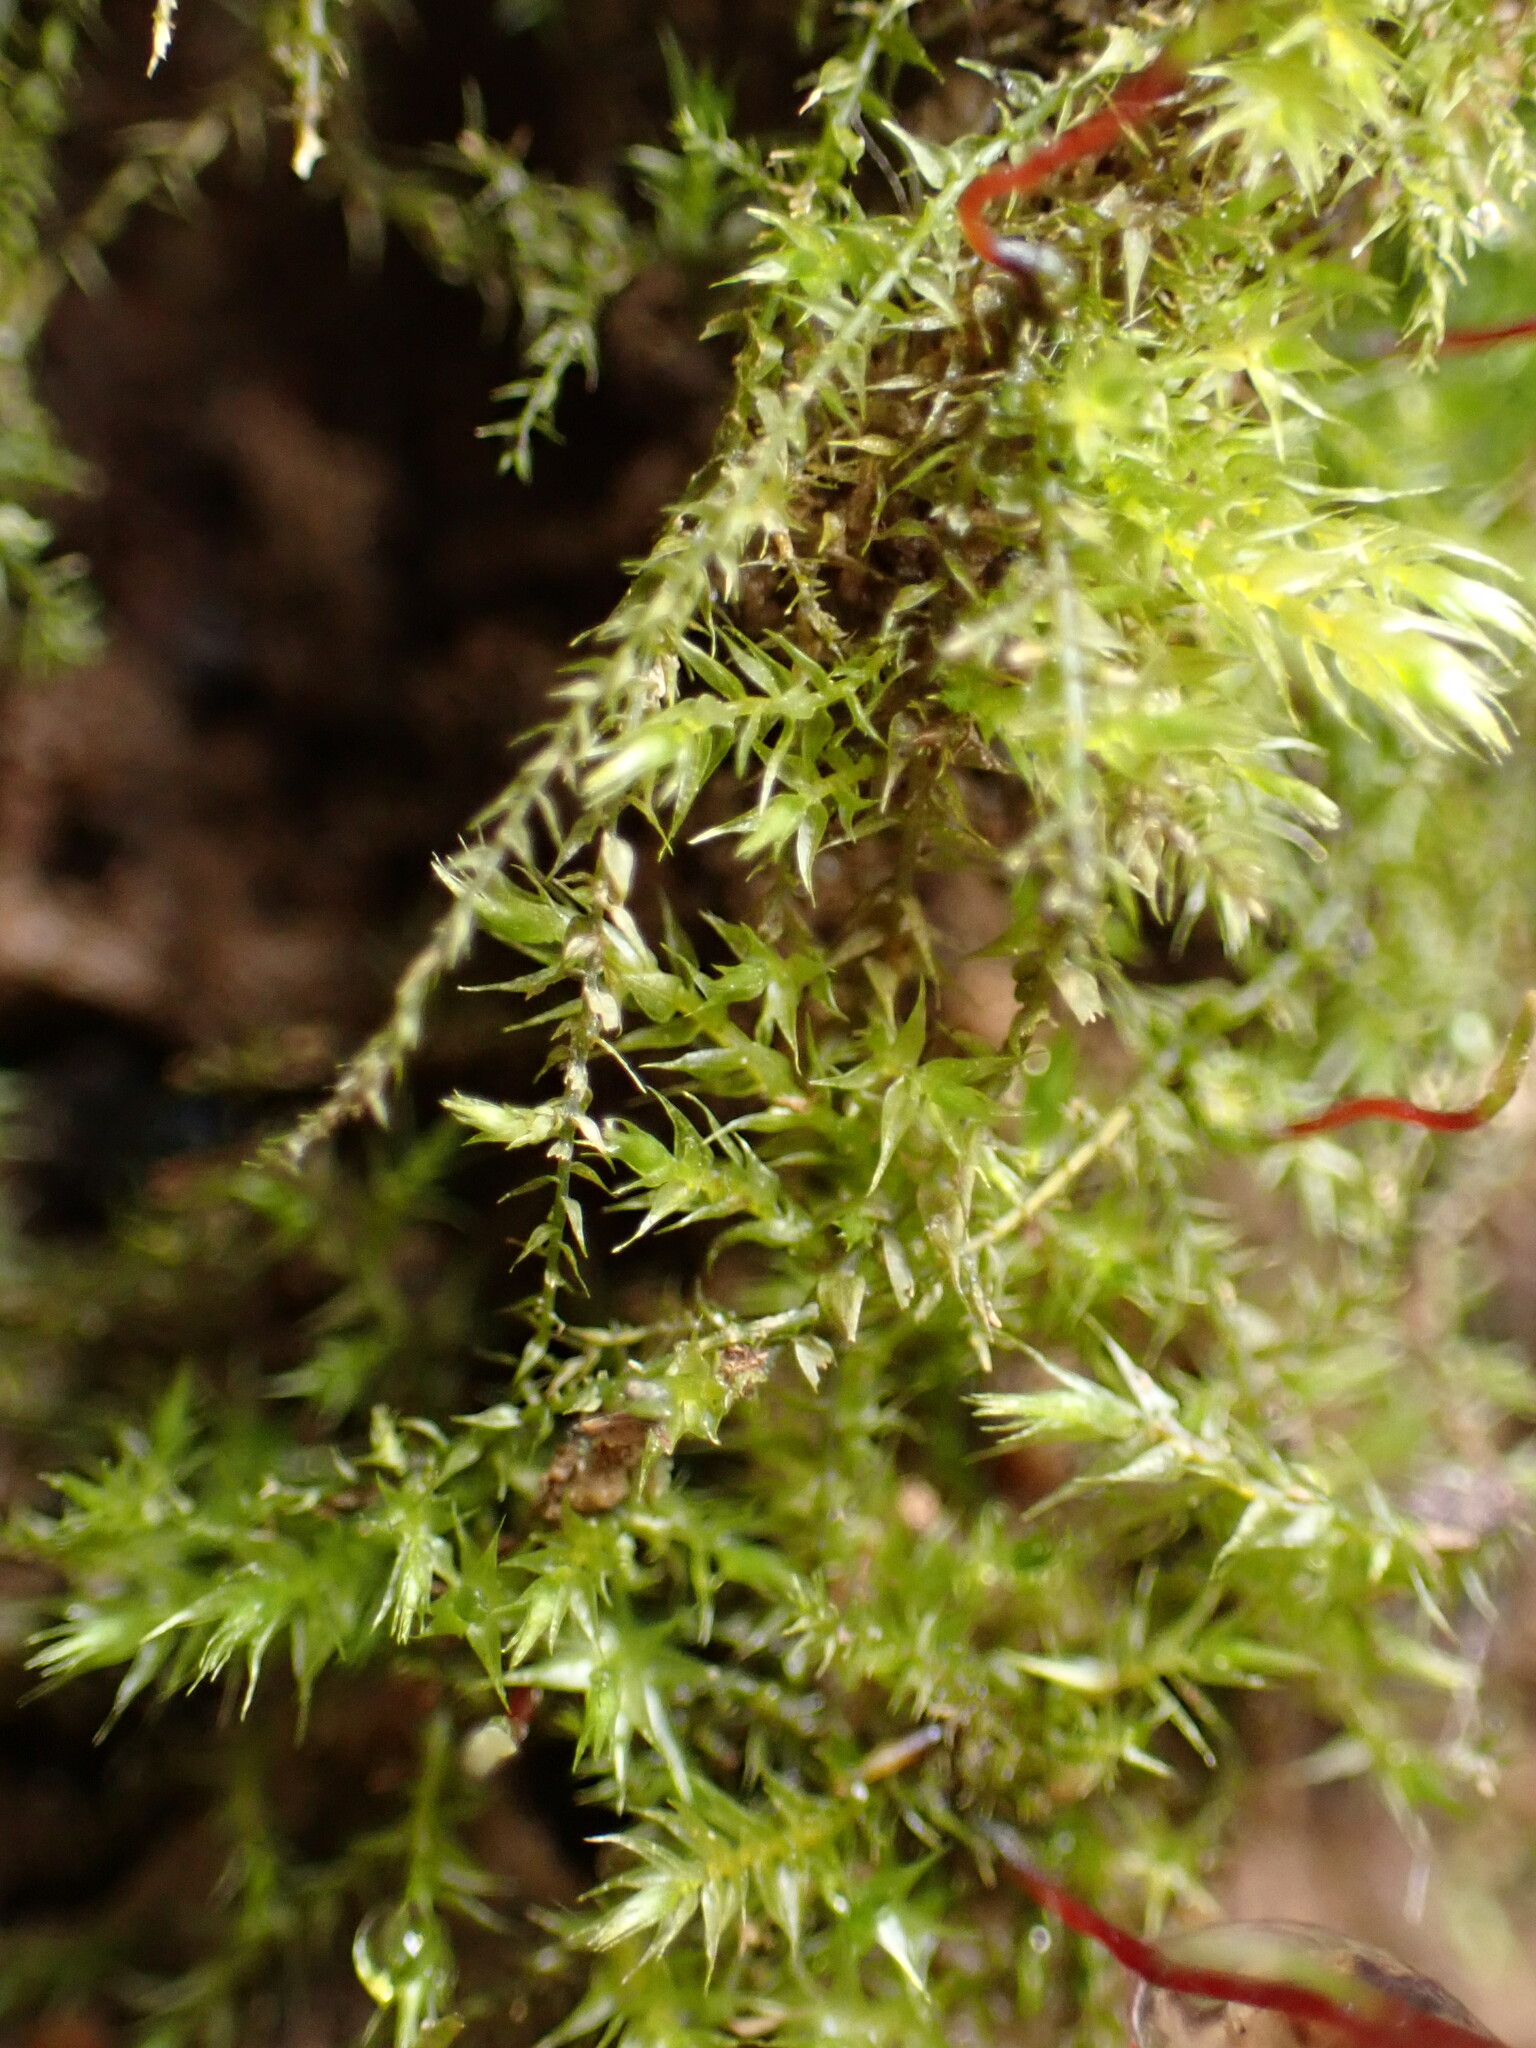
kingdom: Plantae
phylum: Bryophyta
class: Bryopsida
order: Hypnales
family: Amblystegiaceae
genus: Amblystegium
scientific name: Amblystegium serpens
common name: Jurkatzka's feather moss
